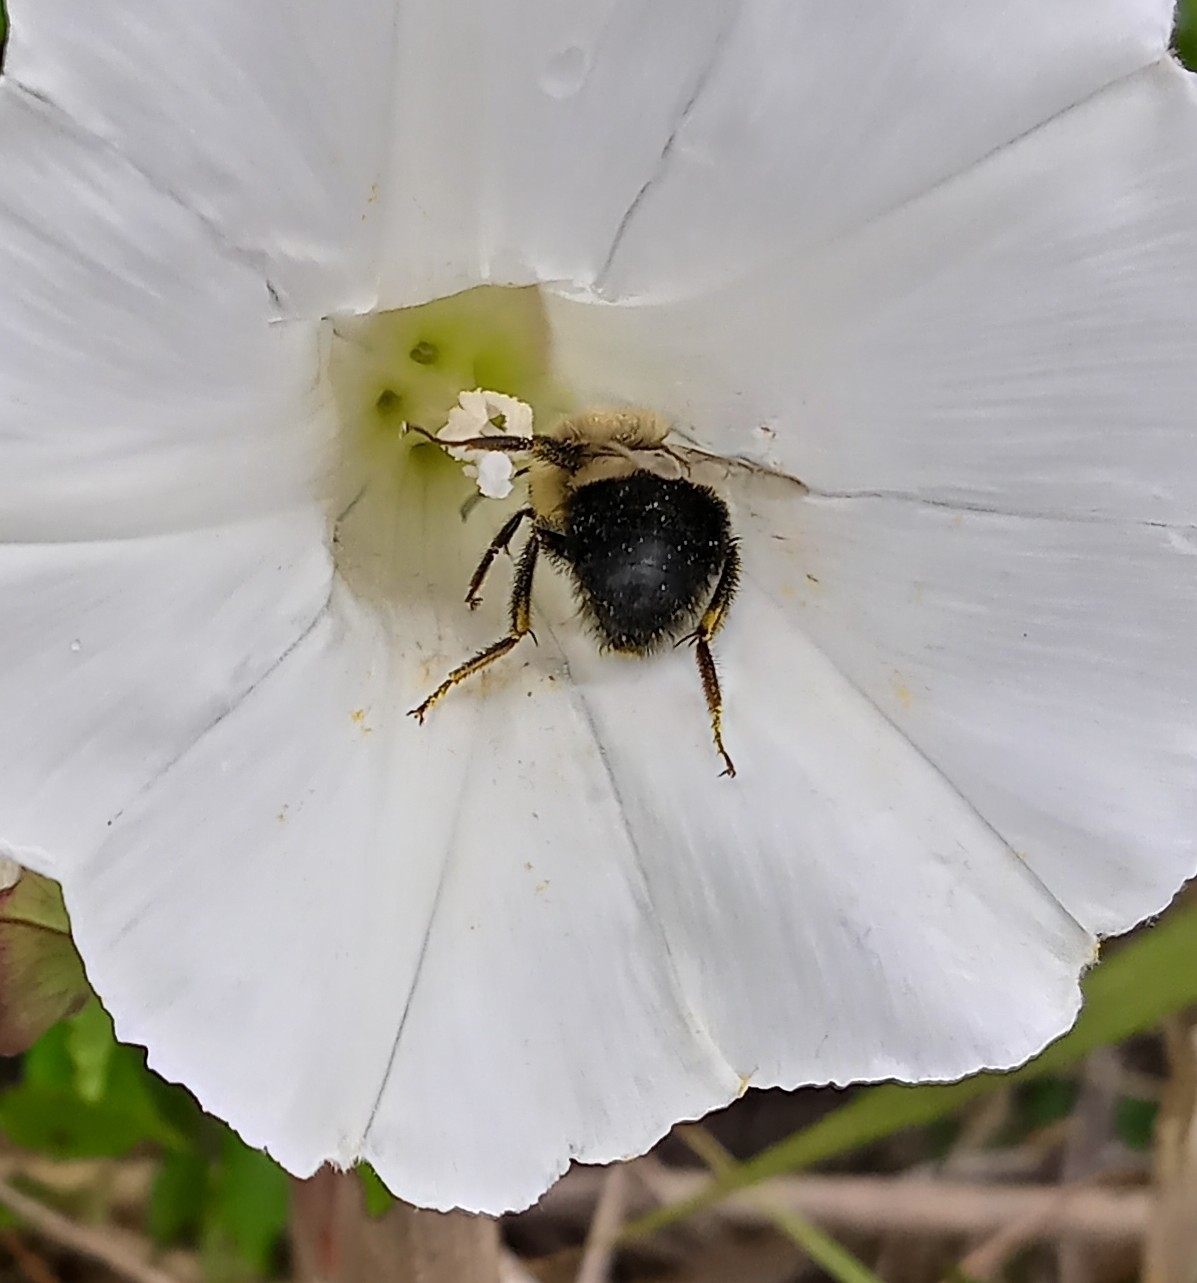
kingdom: Animalia
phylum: Arthropoda
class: Insecta
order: Hymenoptera
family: Apidae
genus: Bombus
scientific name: Bombus impatiens
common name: Common eastern bumble bee
